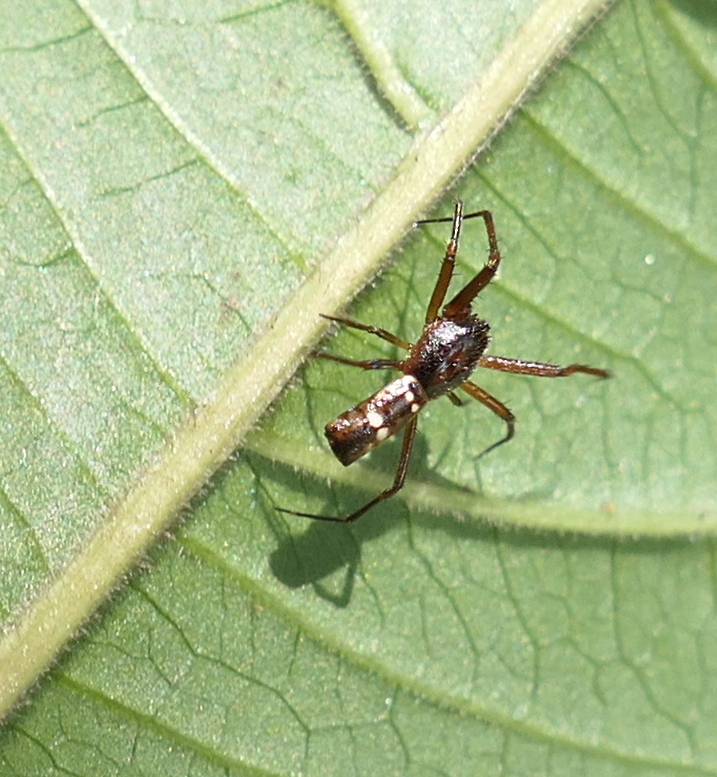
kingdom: Animalia
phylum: Arthropoda
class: Arachnida
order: Araneae
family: Araneidae
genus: Micrathena
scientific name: Micrathena fissispina
